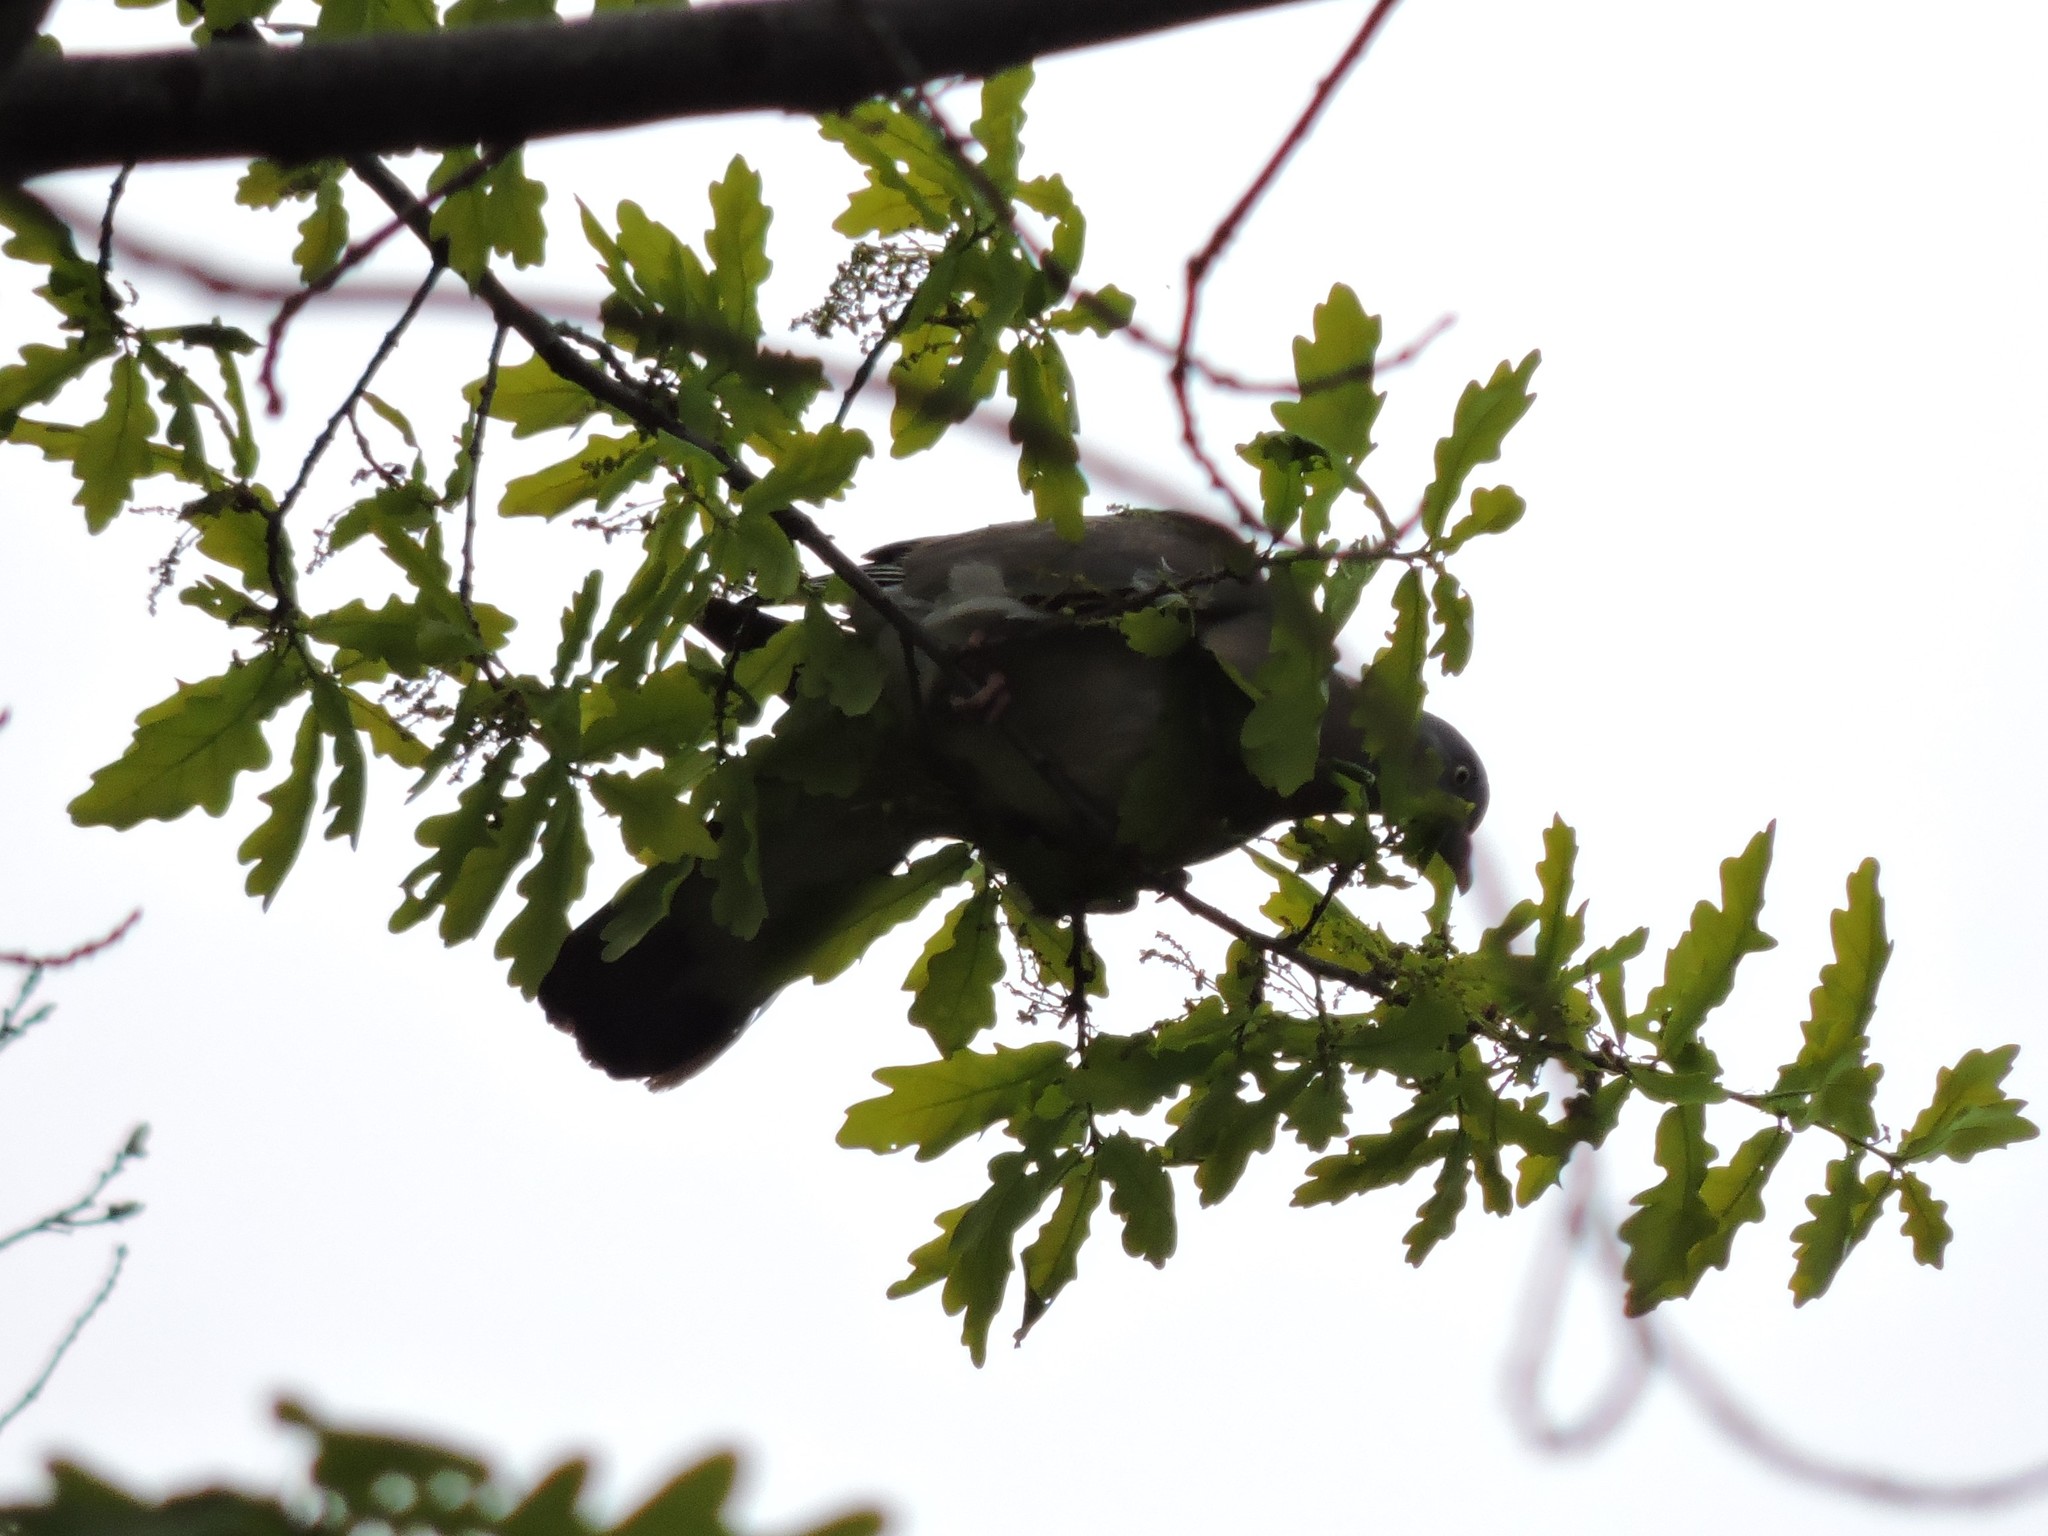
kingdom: Animalia
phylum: Chordata
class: Aves
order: Columbiformes
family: Columbidae
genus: Columba
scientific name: Columba palumbus
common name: Common wood pigeon
